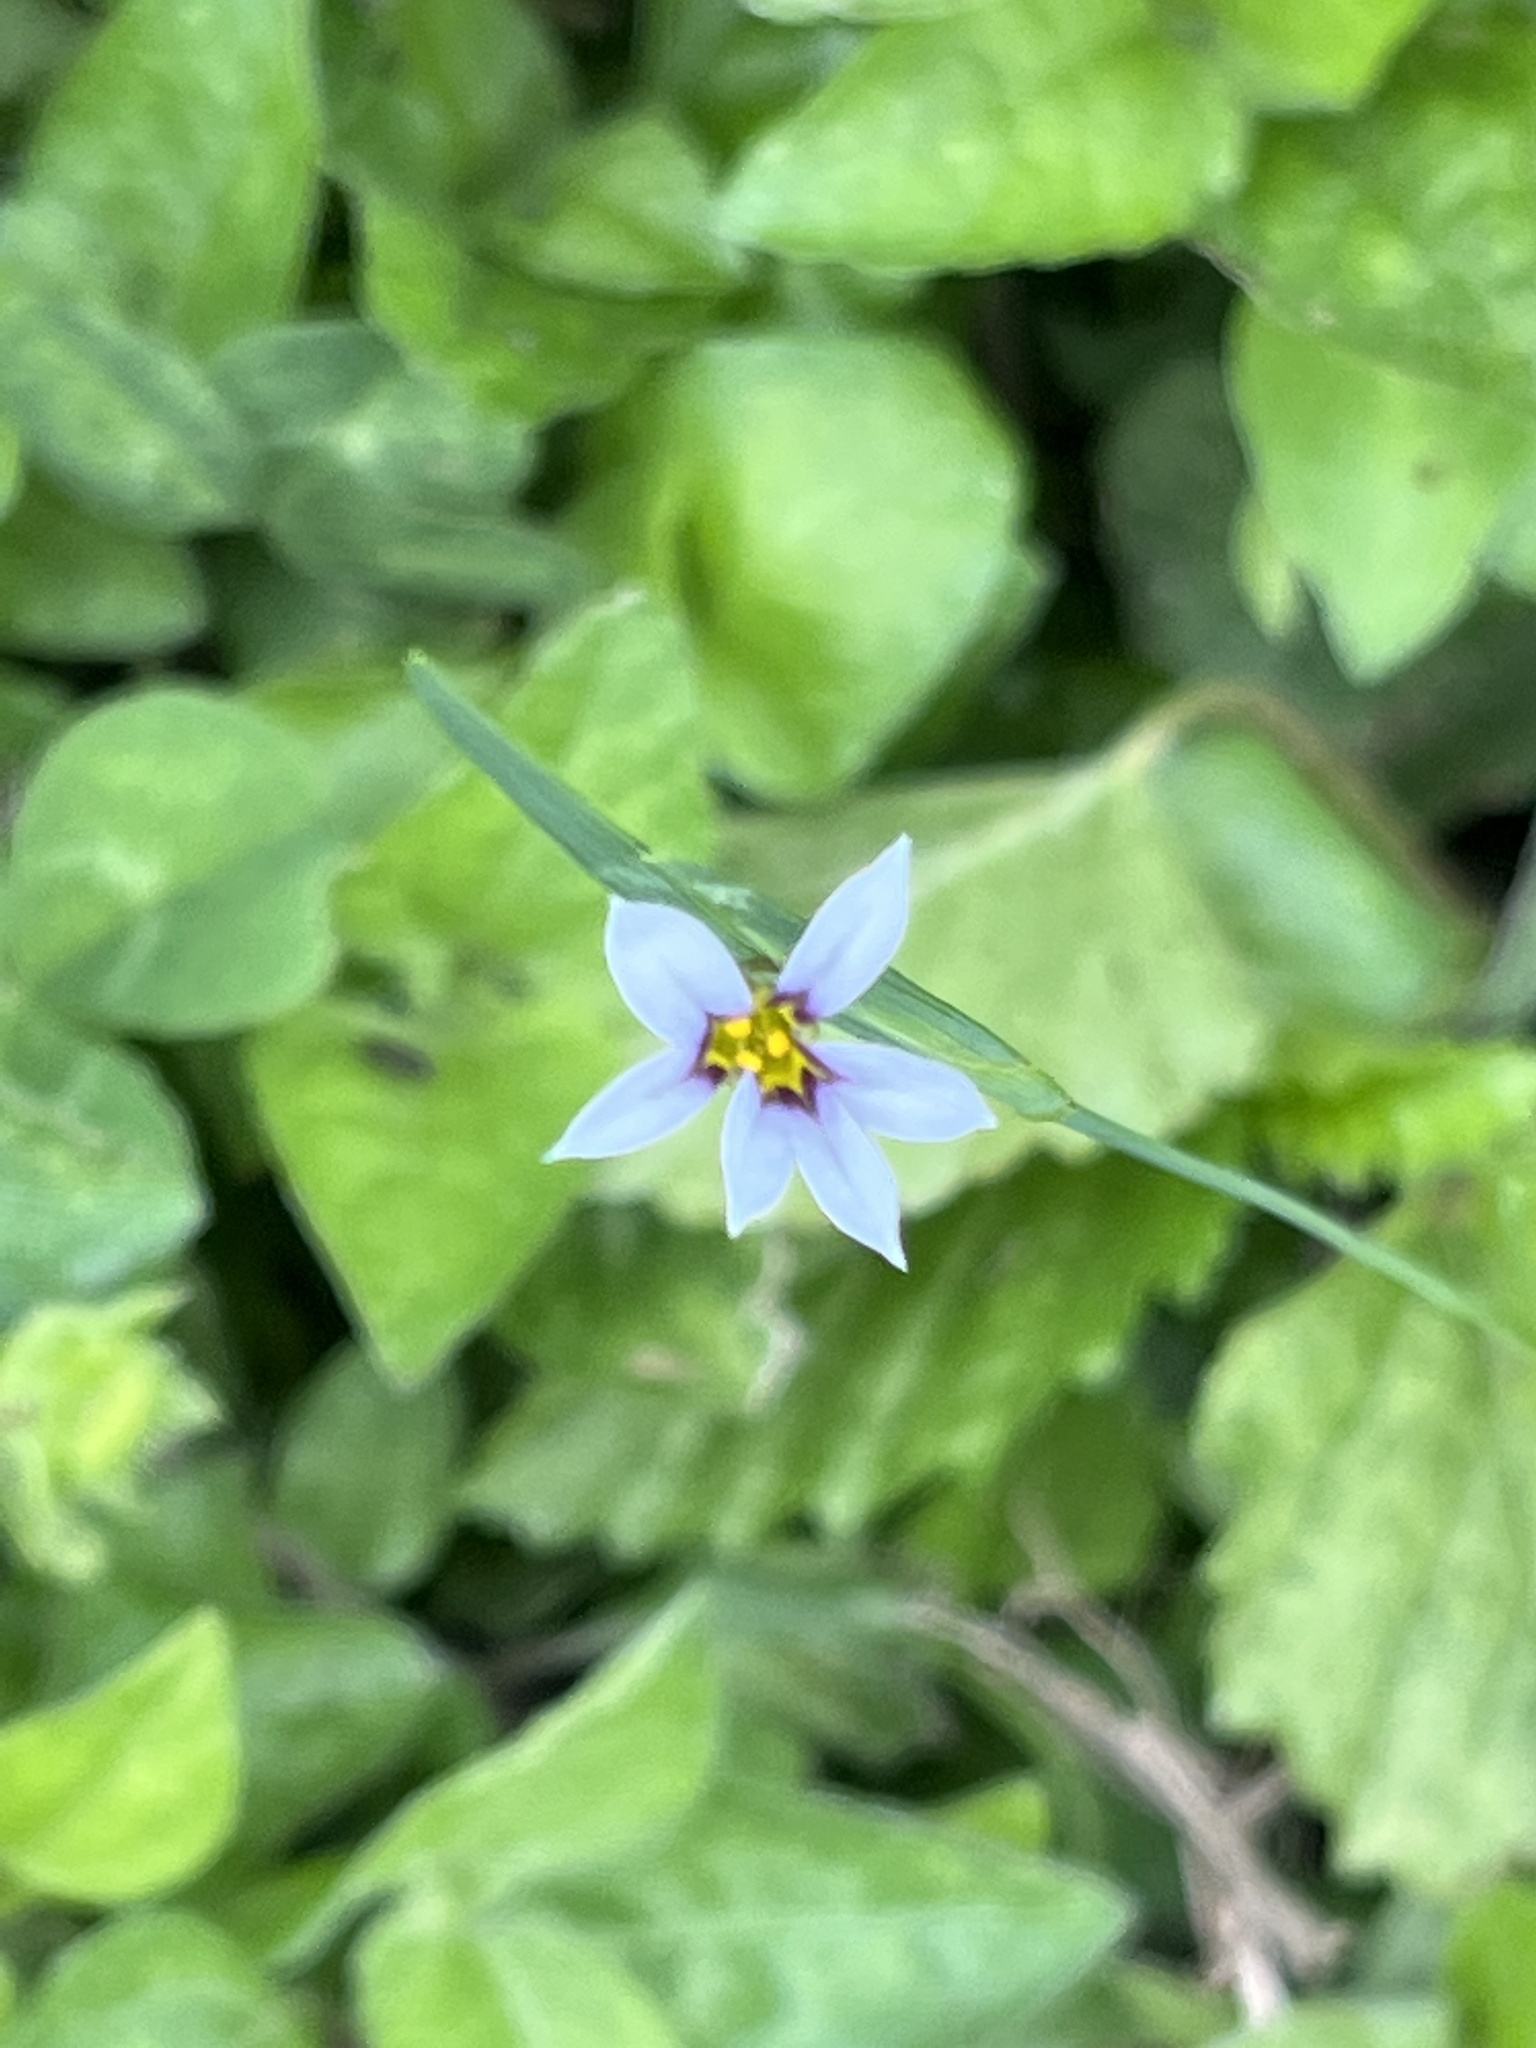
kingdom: Plantae
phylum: Tracheophyta
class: Liliopsida
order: Asparagales
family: Iridaceae
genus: Sisyrinchium
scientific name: Sisyrinchium micranthum
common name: Bermuda pigroot
